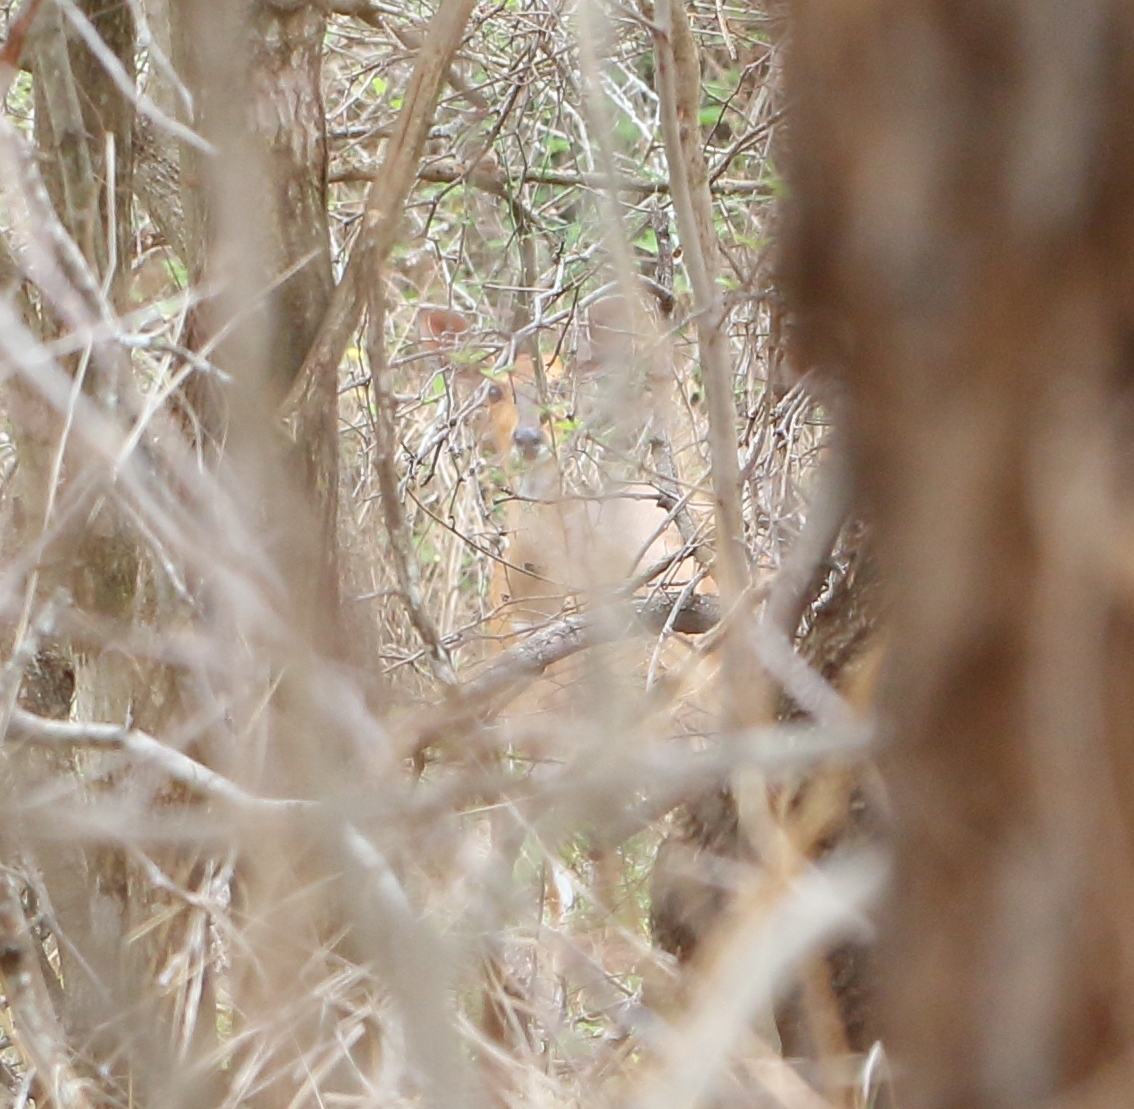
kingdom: Animalia
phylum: Chordata
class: Mammalia
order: Artiodactyla
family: Bovidae
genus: Tragelaphus
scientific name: Tragelaphus scriptus
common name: Bushbuck
